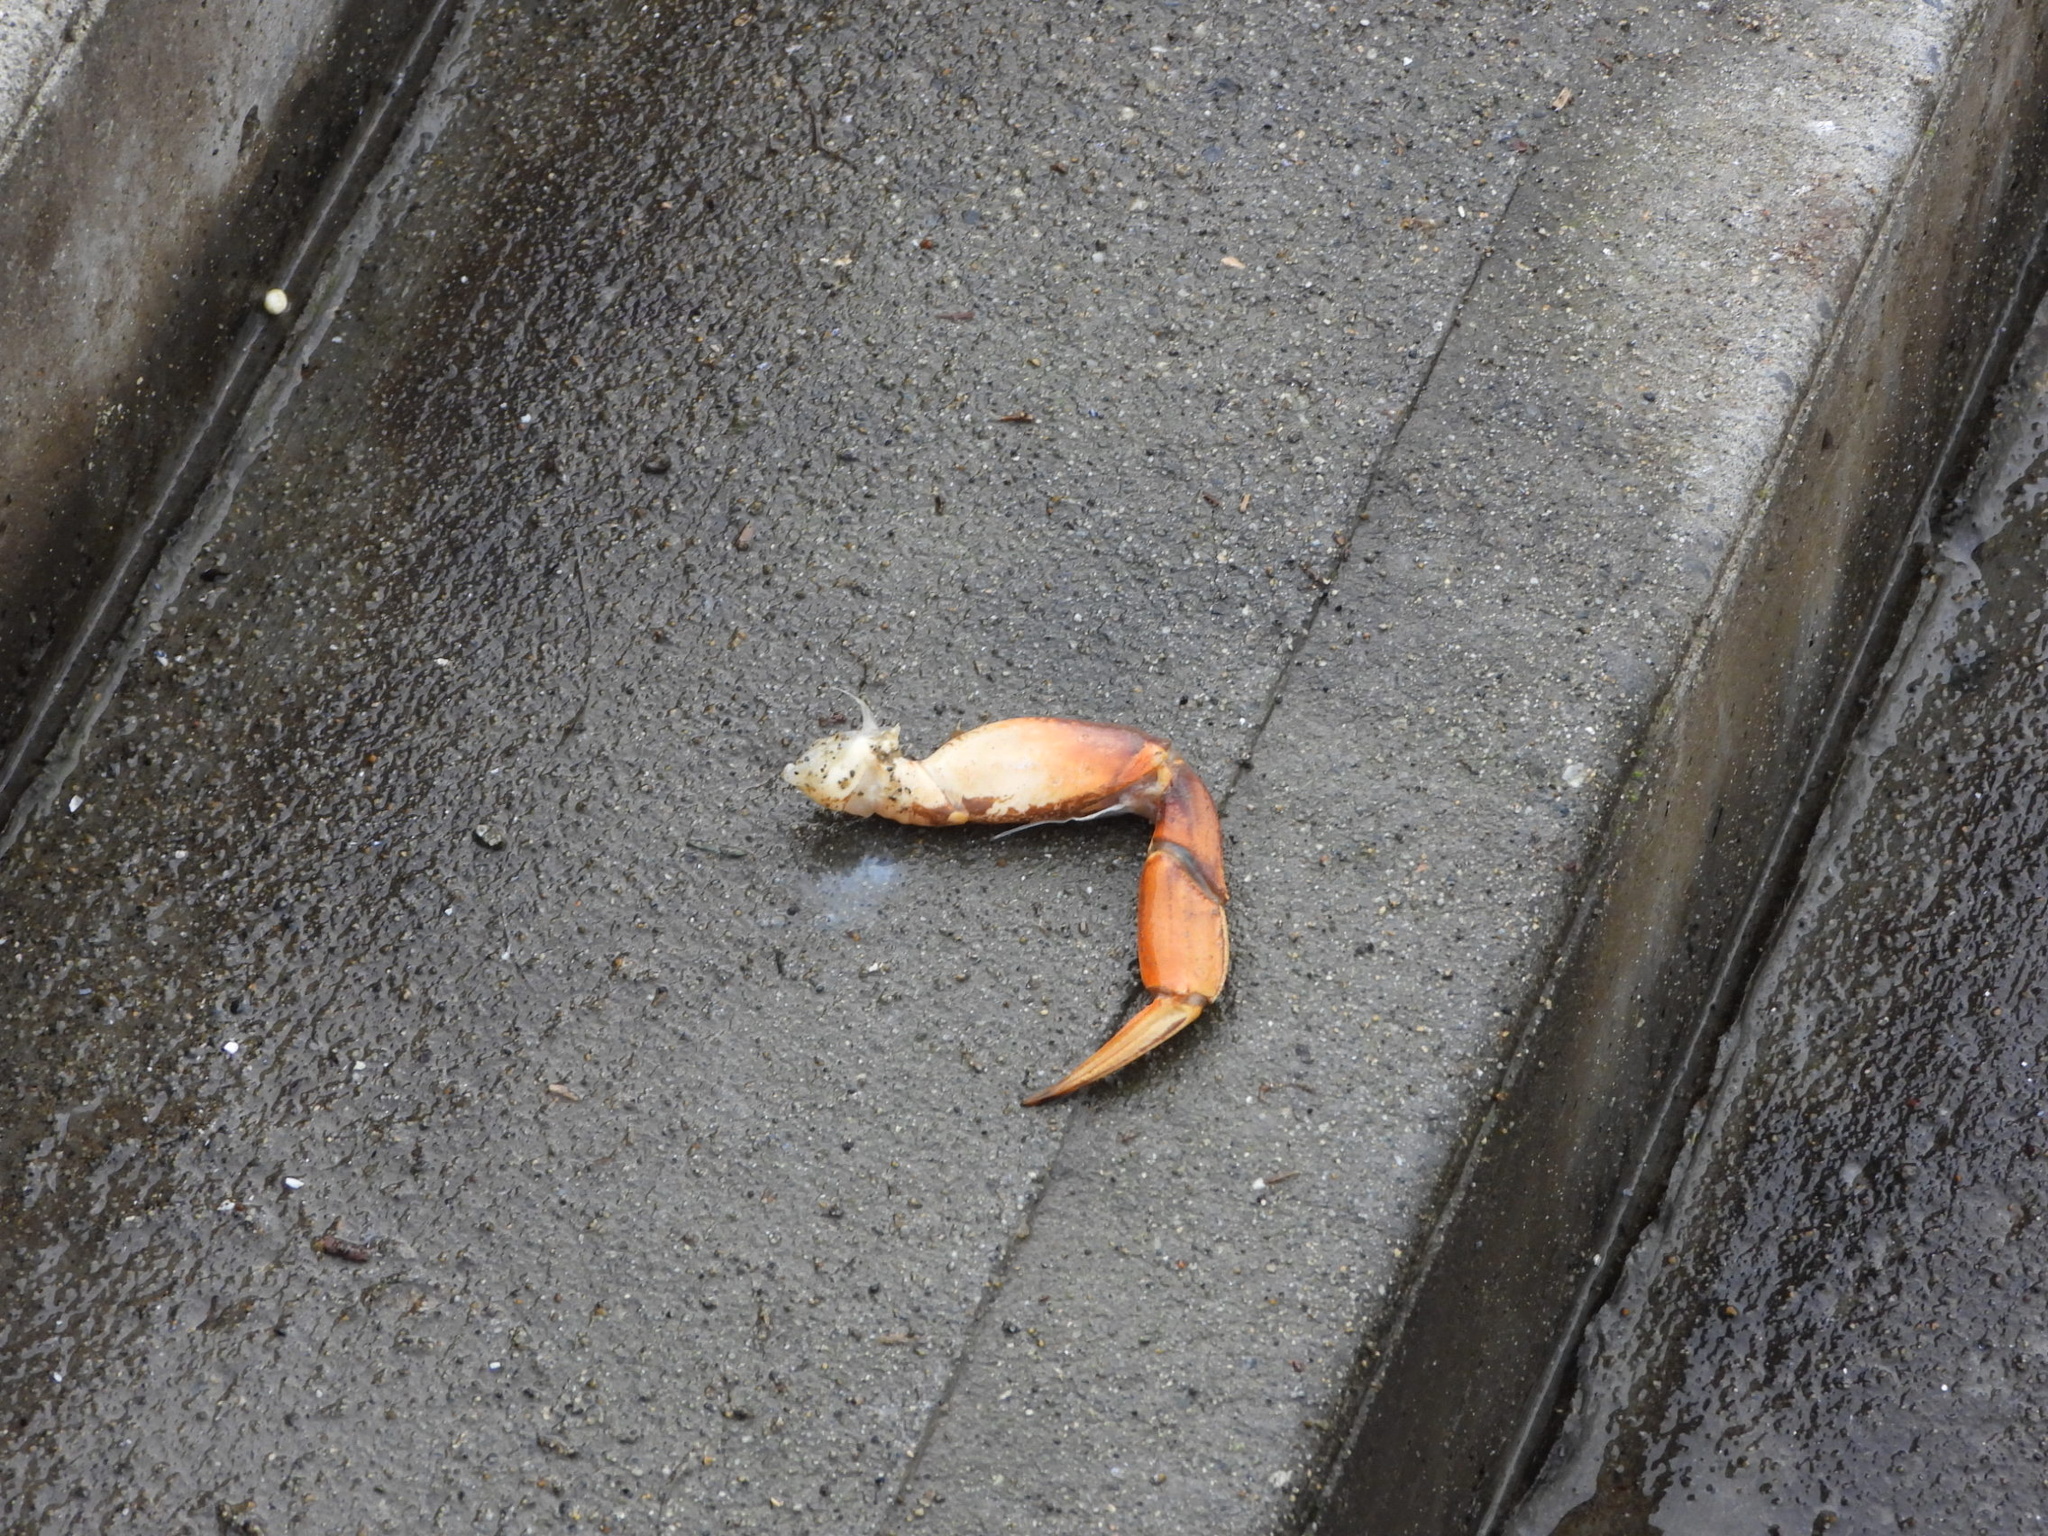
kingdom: Animalia
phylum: Arthropoda
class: Malacostraca
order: Decapoda
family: Cancridae
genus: Metacarcinus
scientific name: Metacarcinus magister
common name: Californian crab
